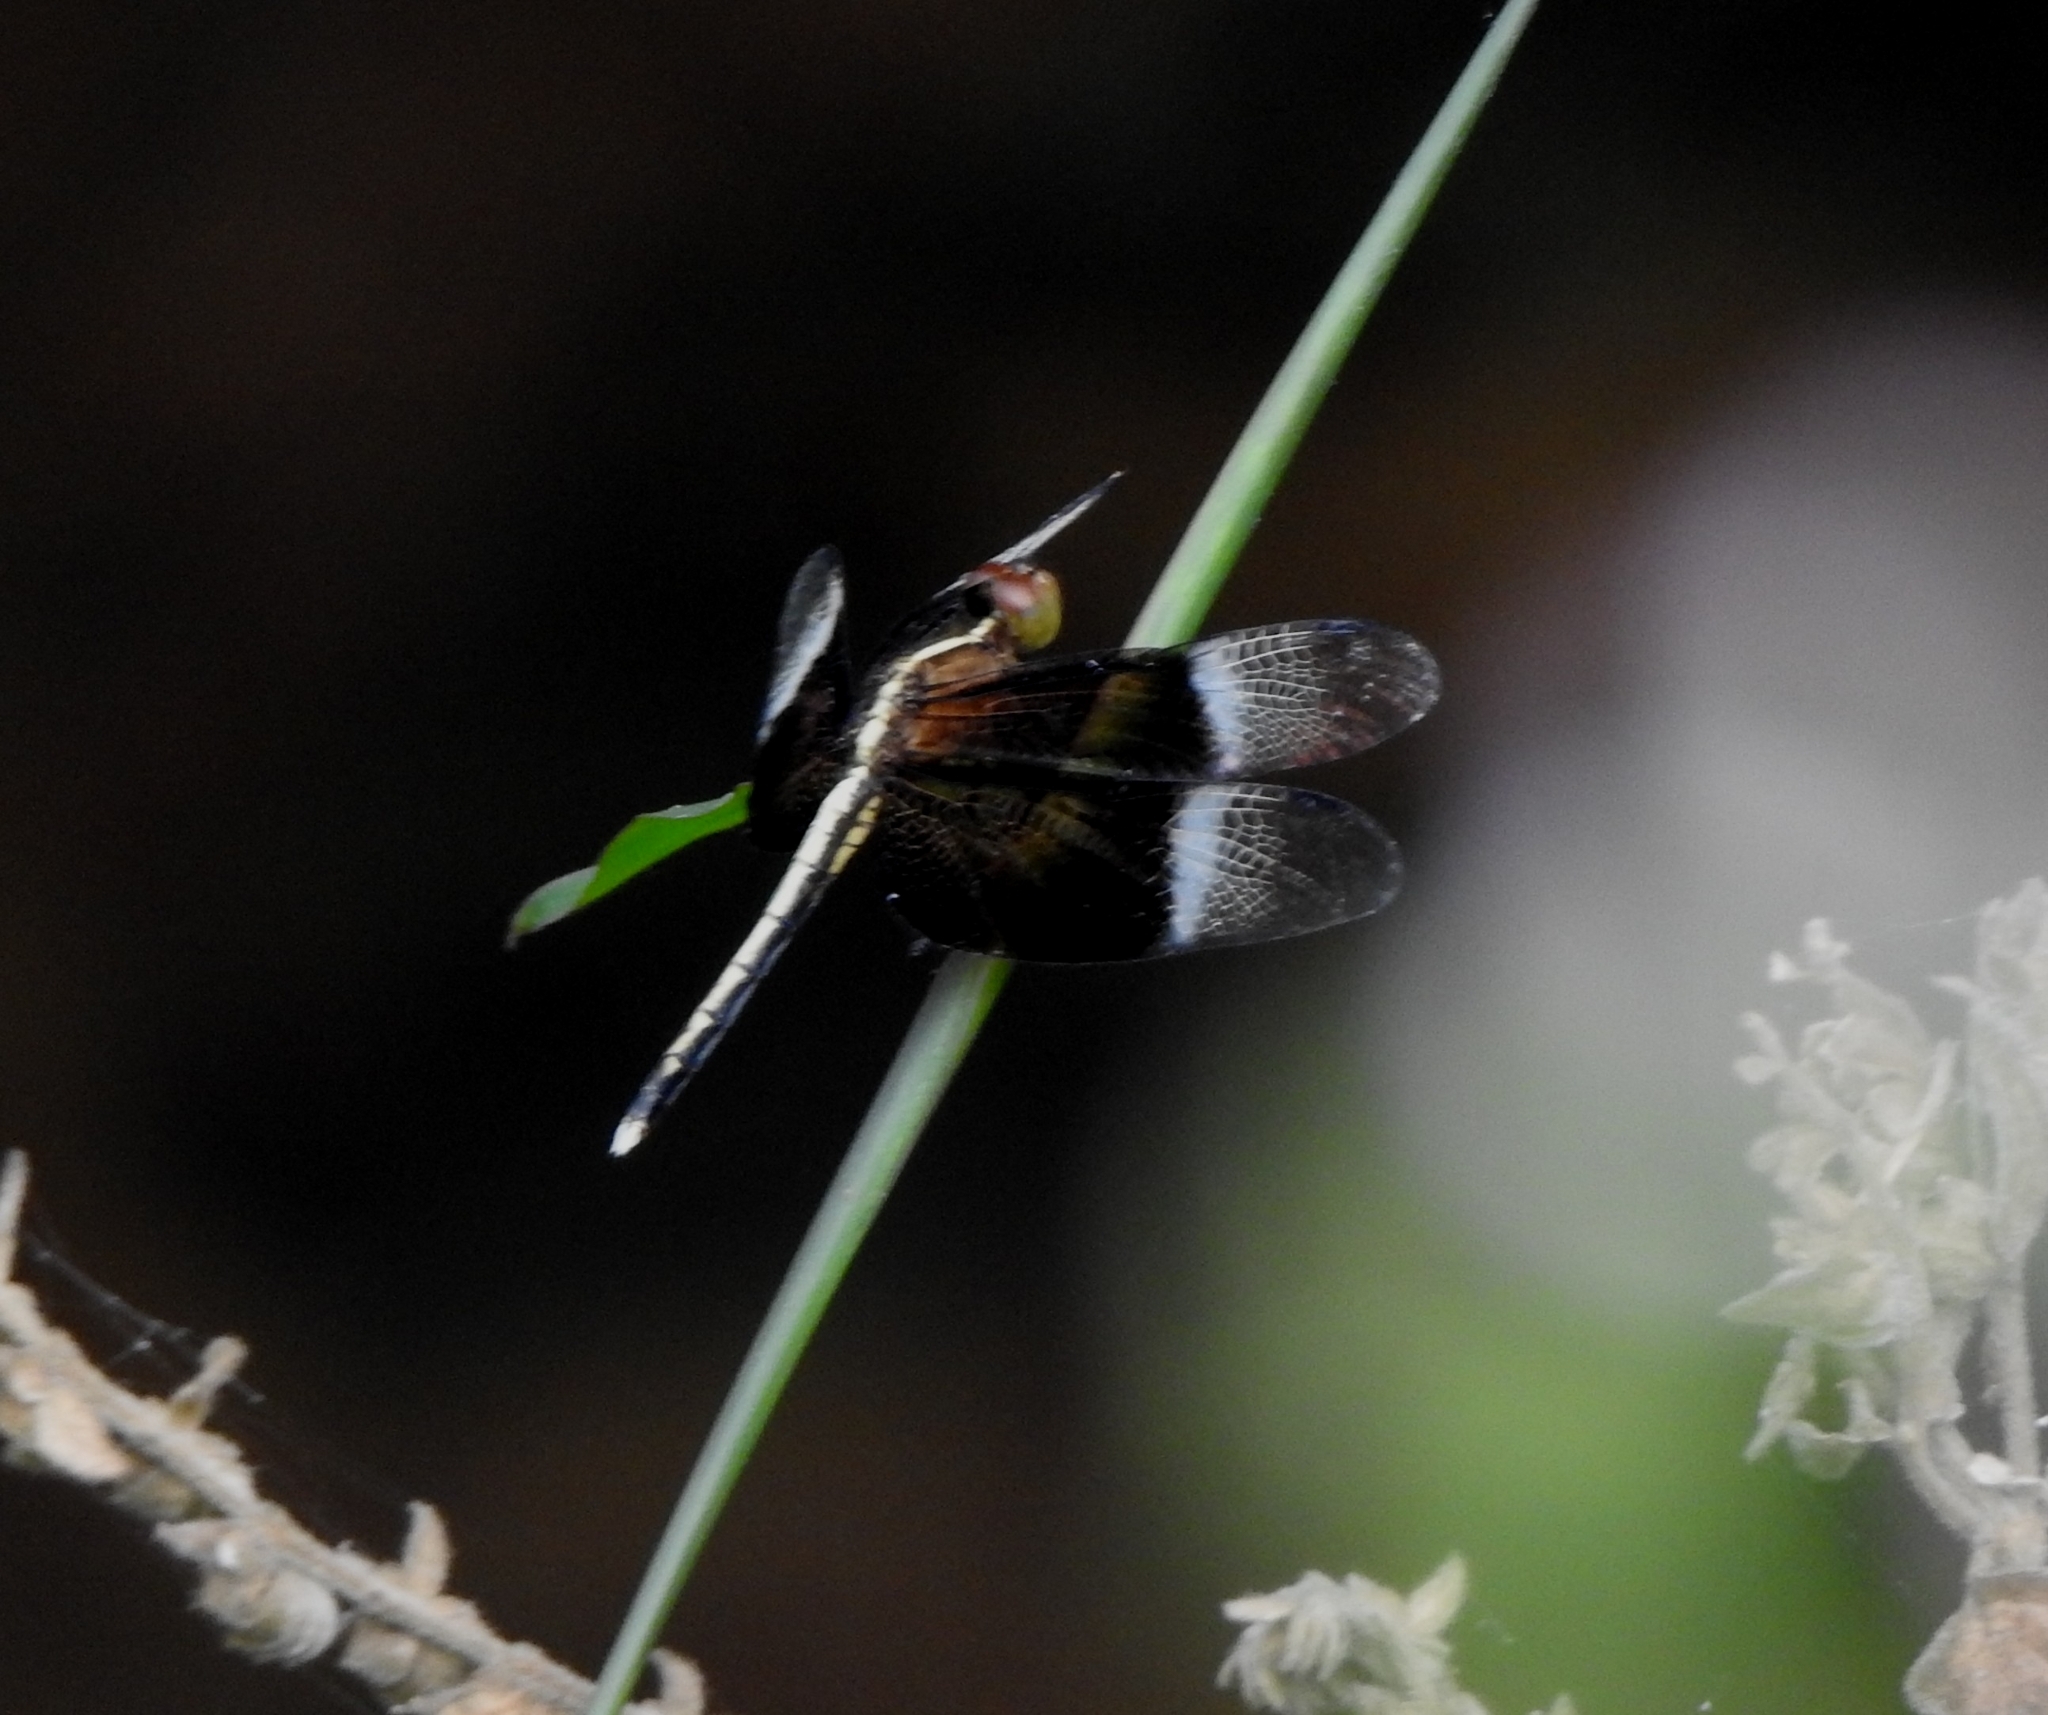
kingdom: Animalia
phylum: Arthropoda
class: Insecta
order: Odonata
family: Libellulidae
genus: Neurothemis
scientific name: Neurothemis tullia
